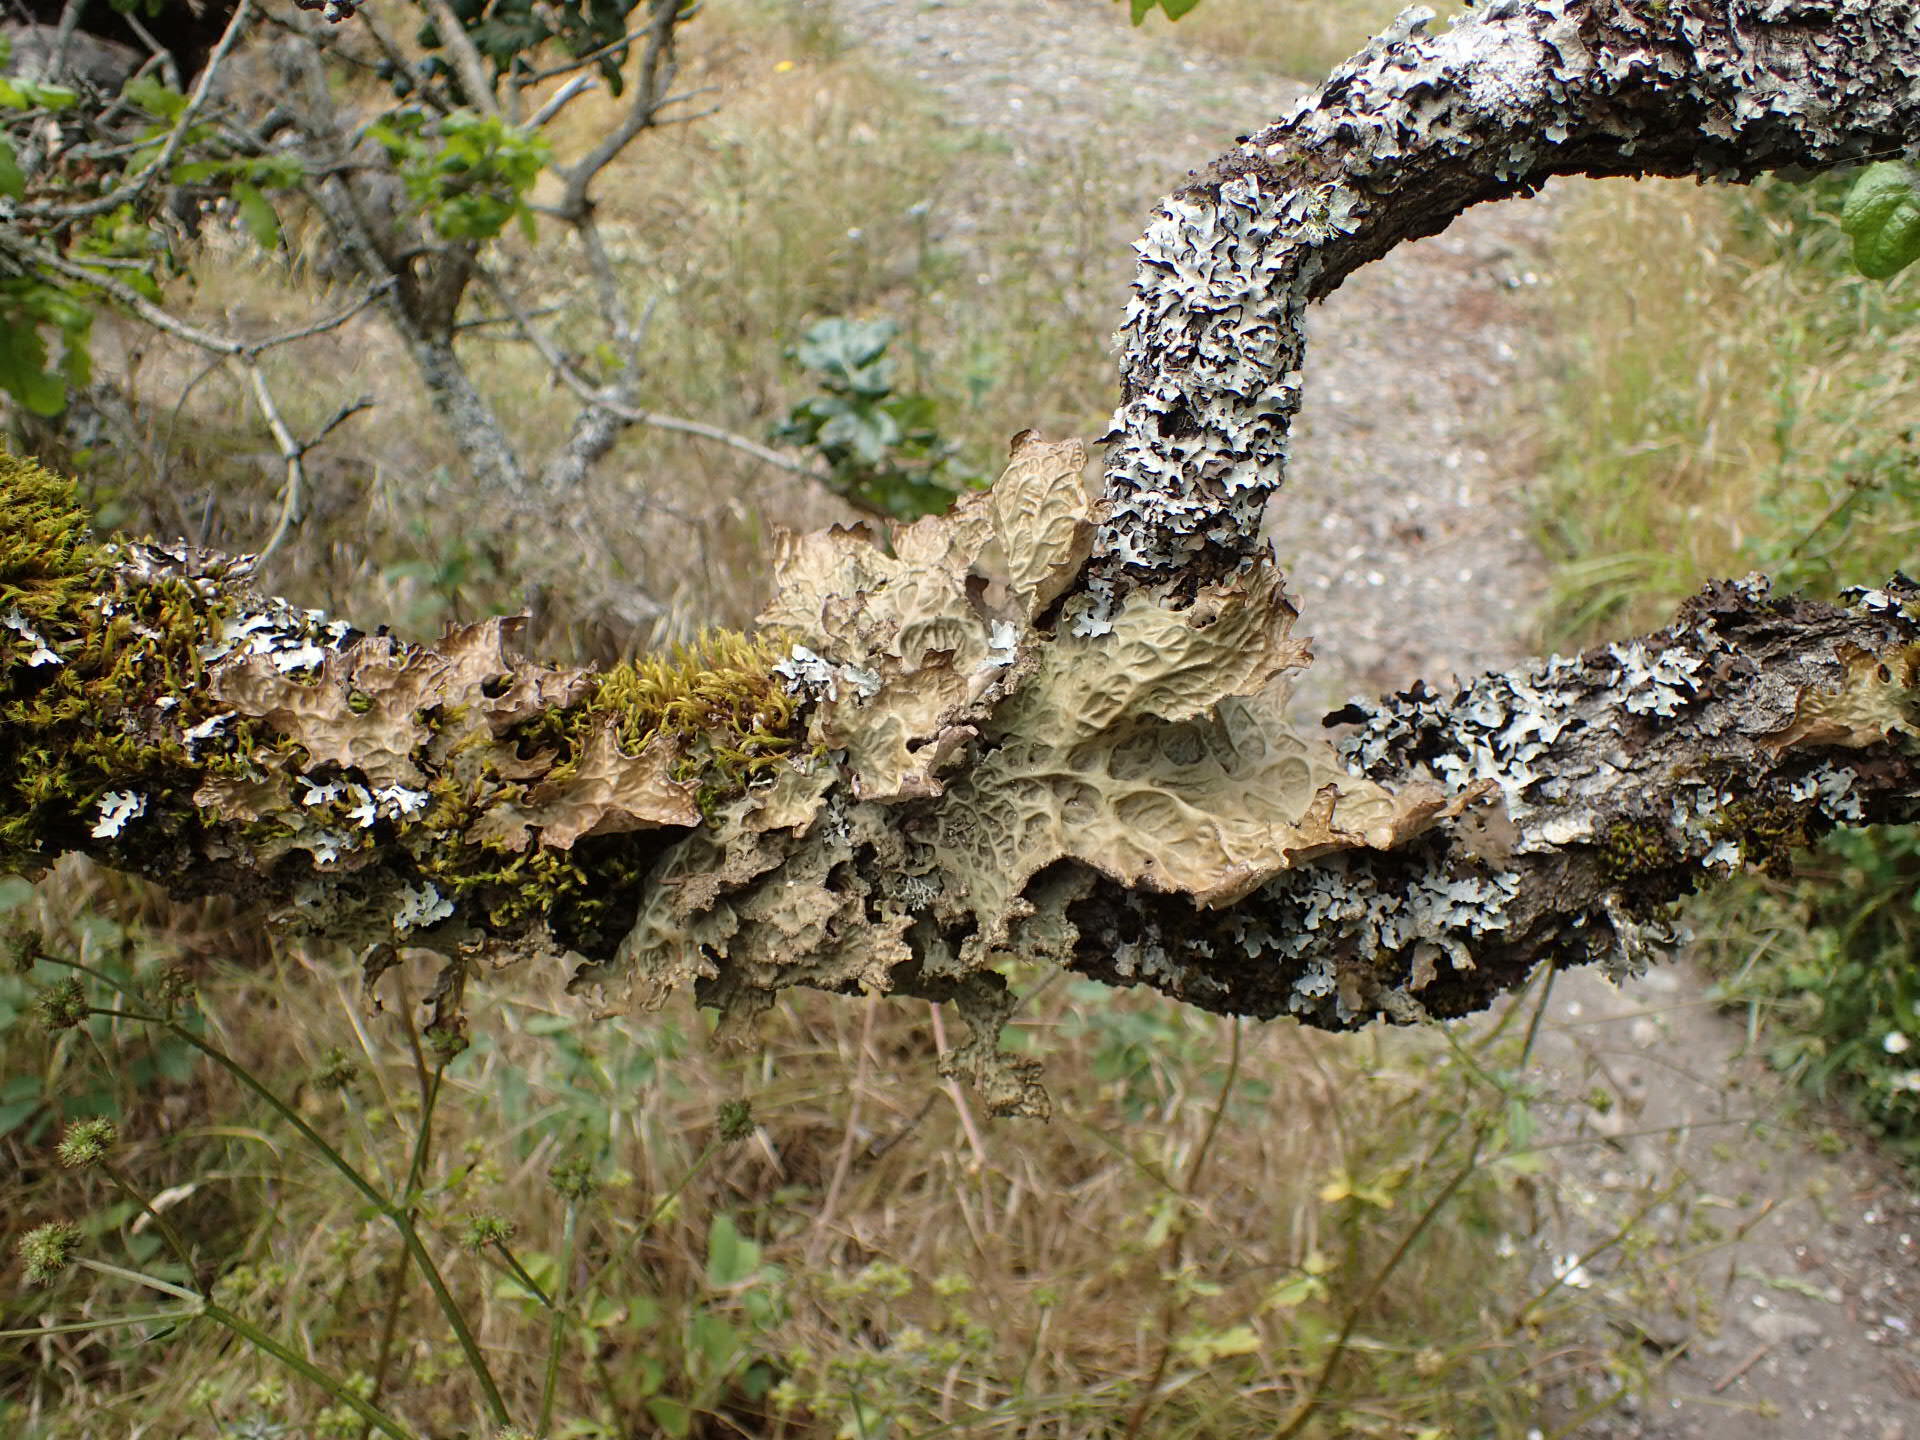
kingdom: Fungi
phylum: Ascomycota
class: Lecanoromycetes
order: Peltigerales
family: Lobariaceae
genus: Lobaria
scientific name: Lobaria pulmonaria
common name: Lungwort
